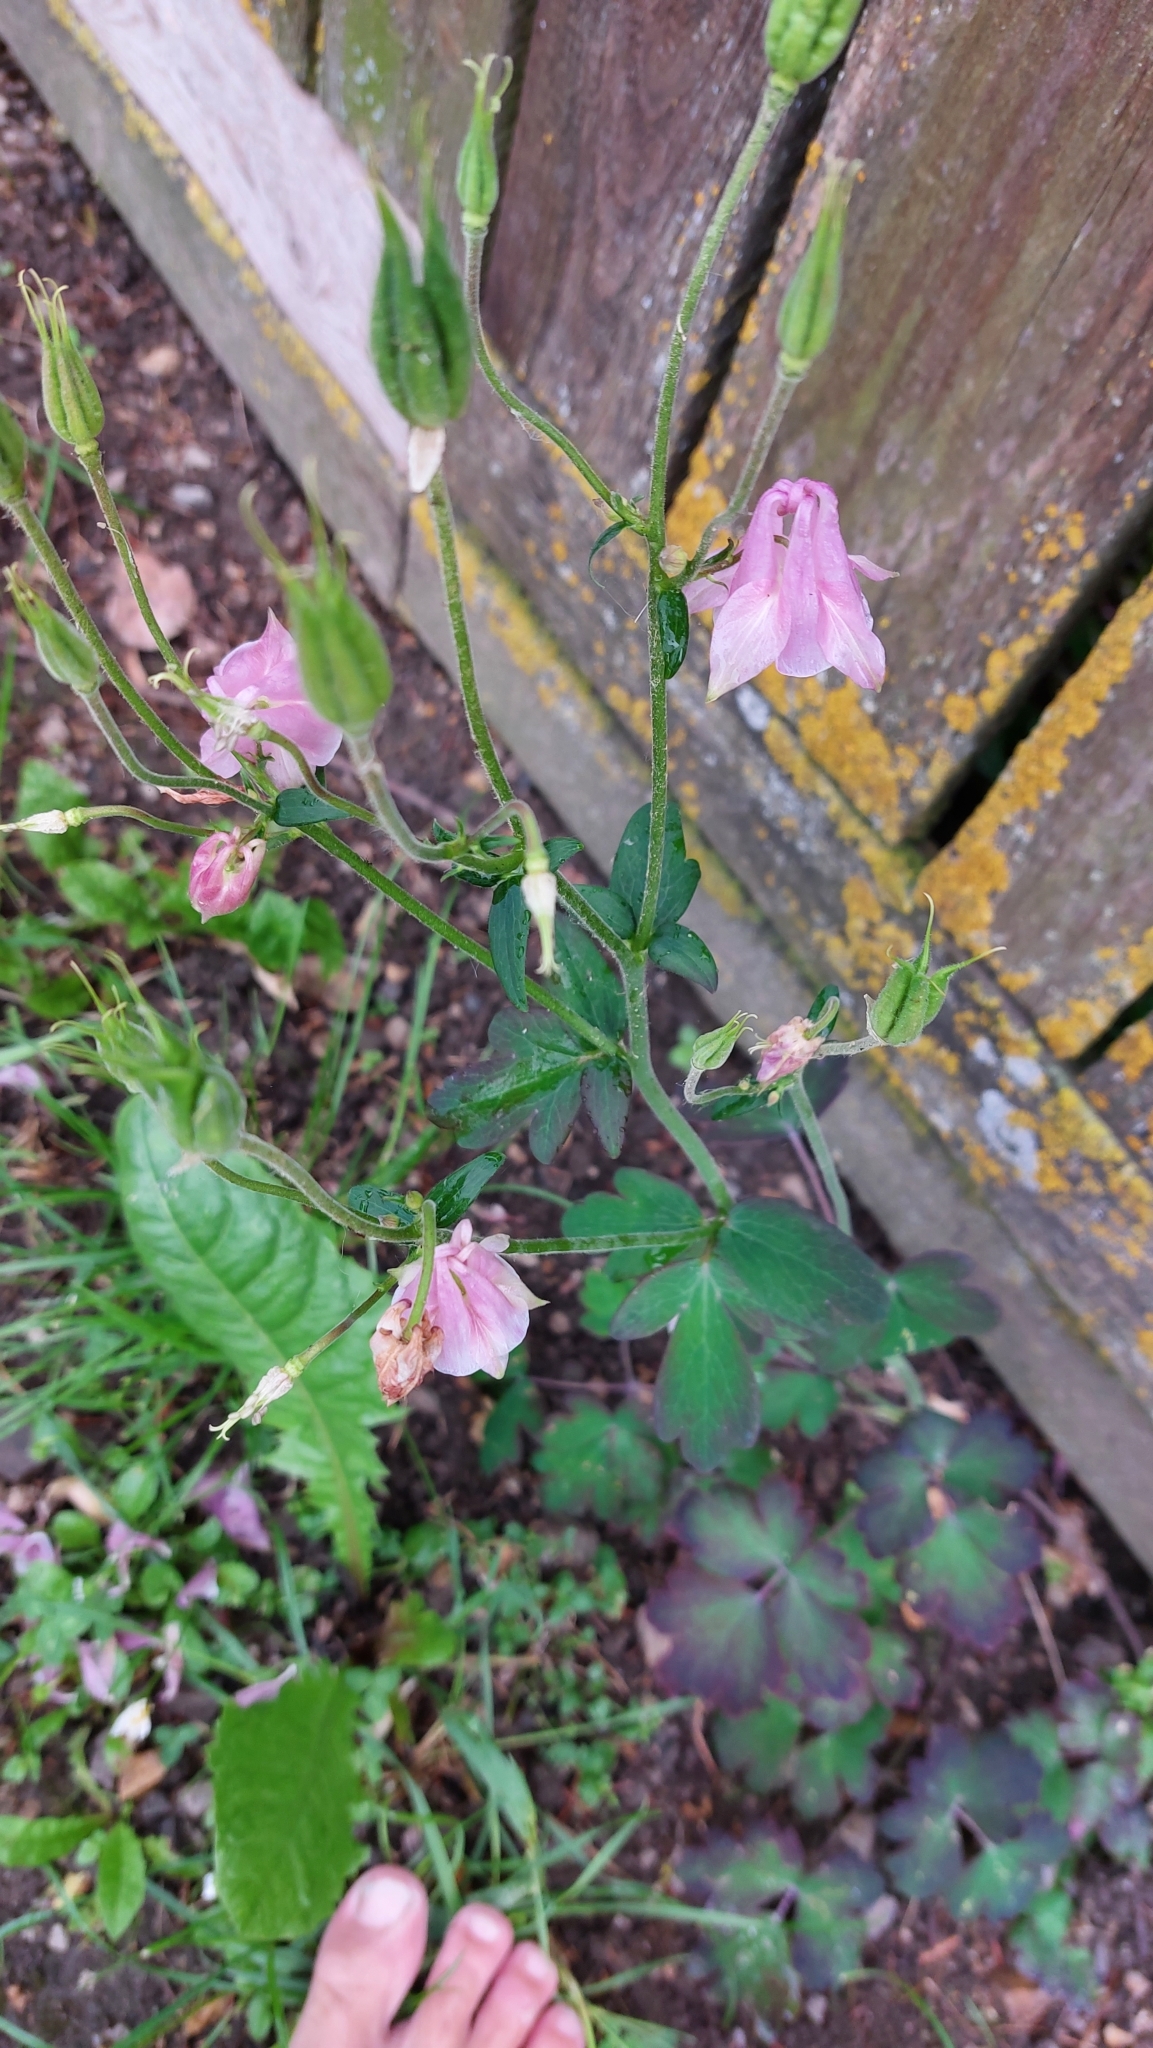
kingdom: Plantae
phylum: Tracheophyta
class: Magnoliopsida
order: Ranunculales
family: Ranunculaceae
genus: Aquilegia
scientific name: Aquilegia vulgaris
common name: Columbine
